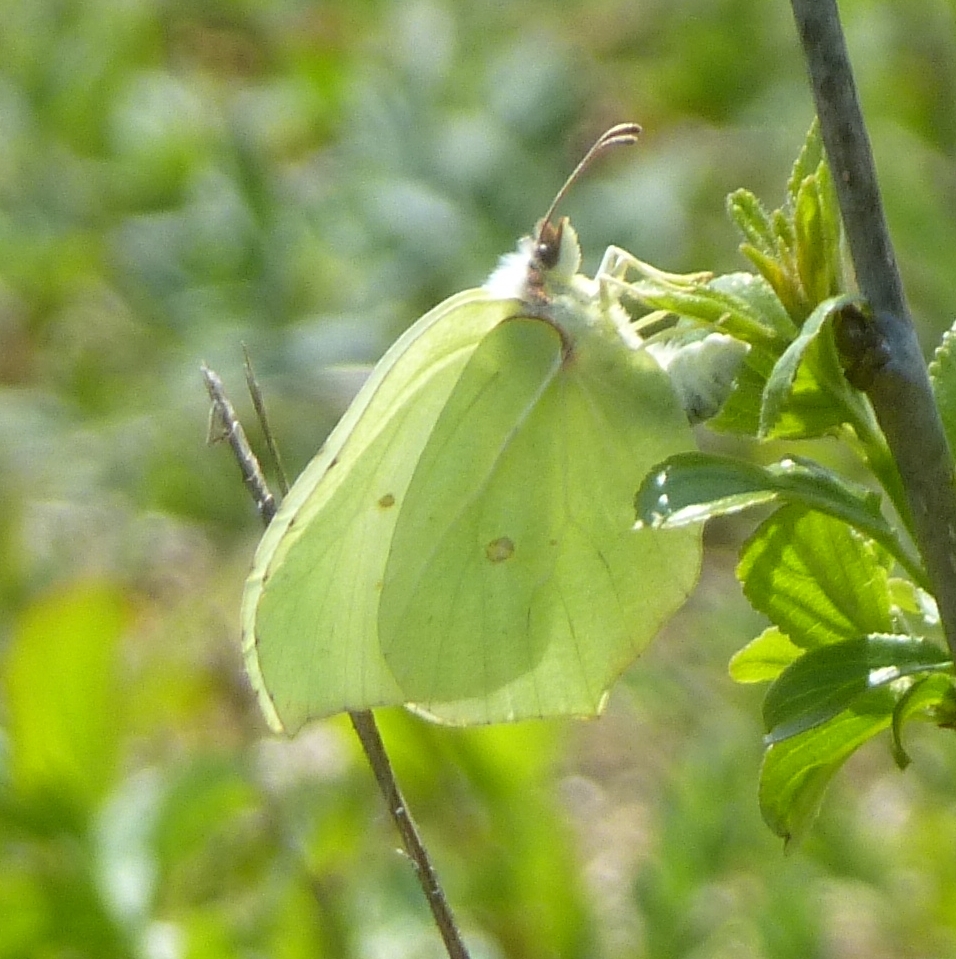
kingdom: Animalia
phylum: Arthropoda
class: Insecta
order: Lepidoptera
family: Pieridae
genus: Gonepteryx
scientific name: Gonepteryx rhamni
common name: Brimstone
